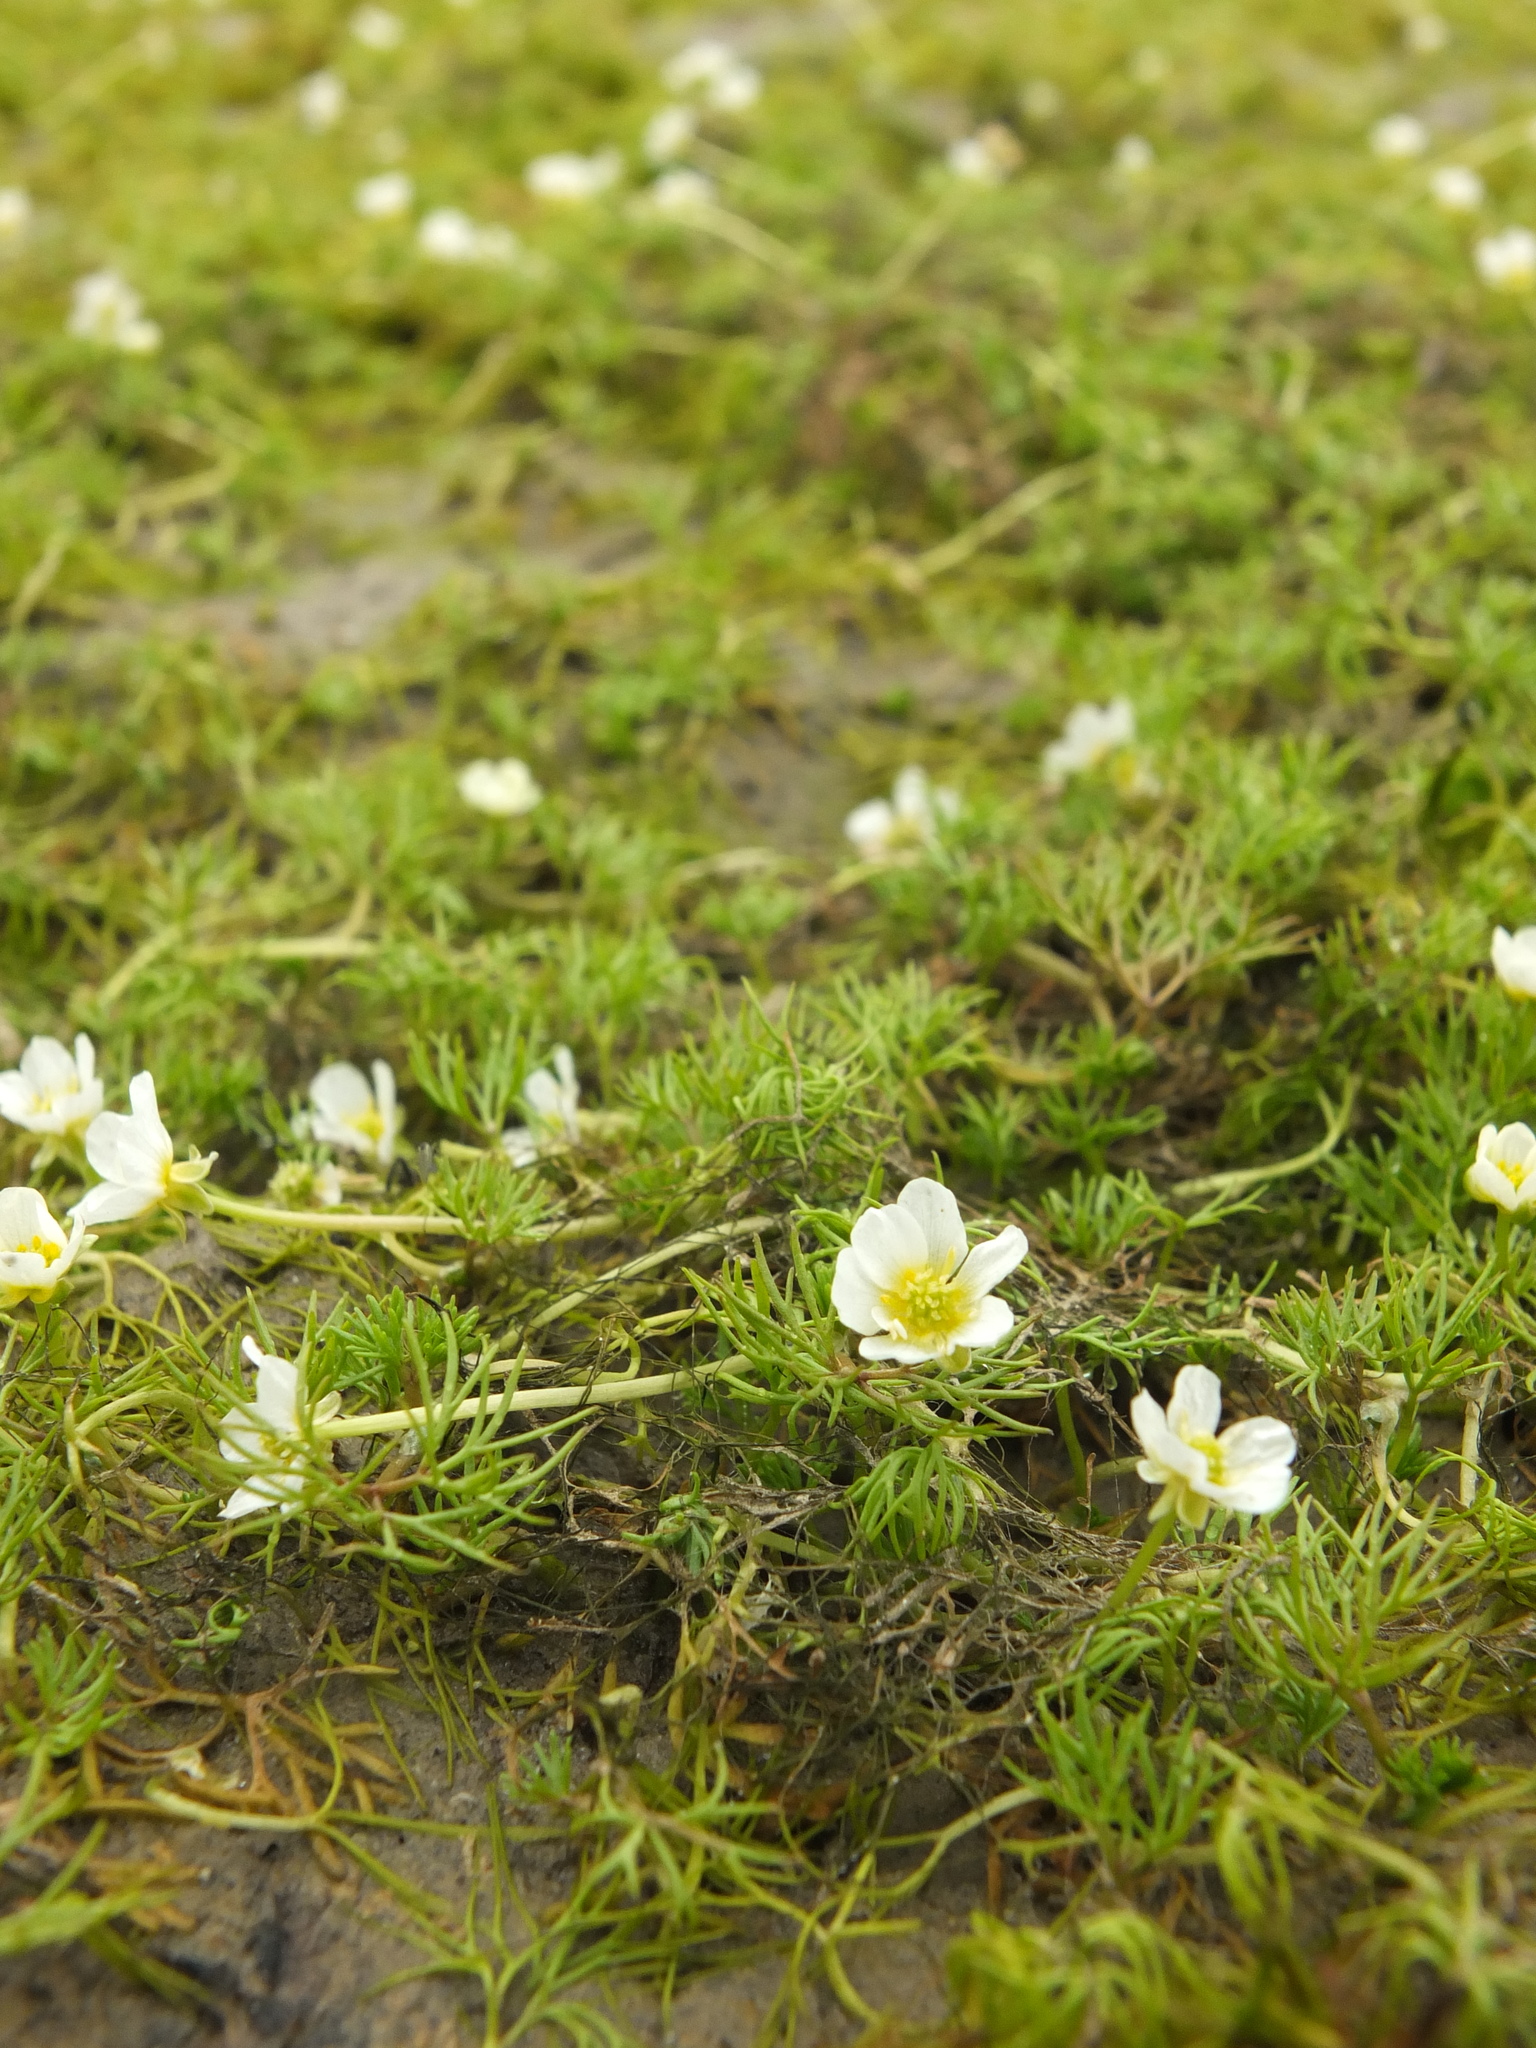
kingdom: Plantae
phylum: Tracheophyta
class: Magnoliopsida
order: Ranunculales
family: Ranunculaceae
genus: Ranunculus
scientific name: Ranunculus trichophyllus
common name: Thread-leaved water-crowfoot
